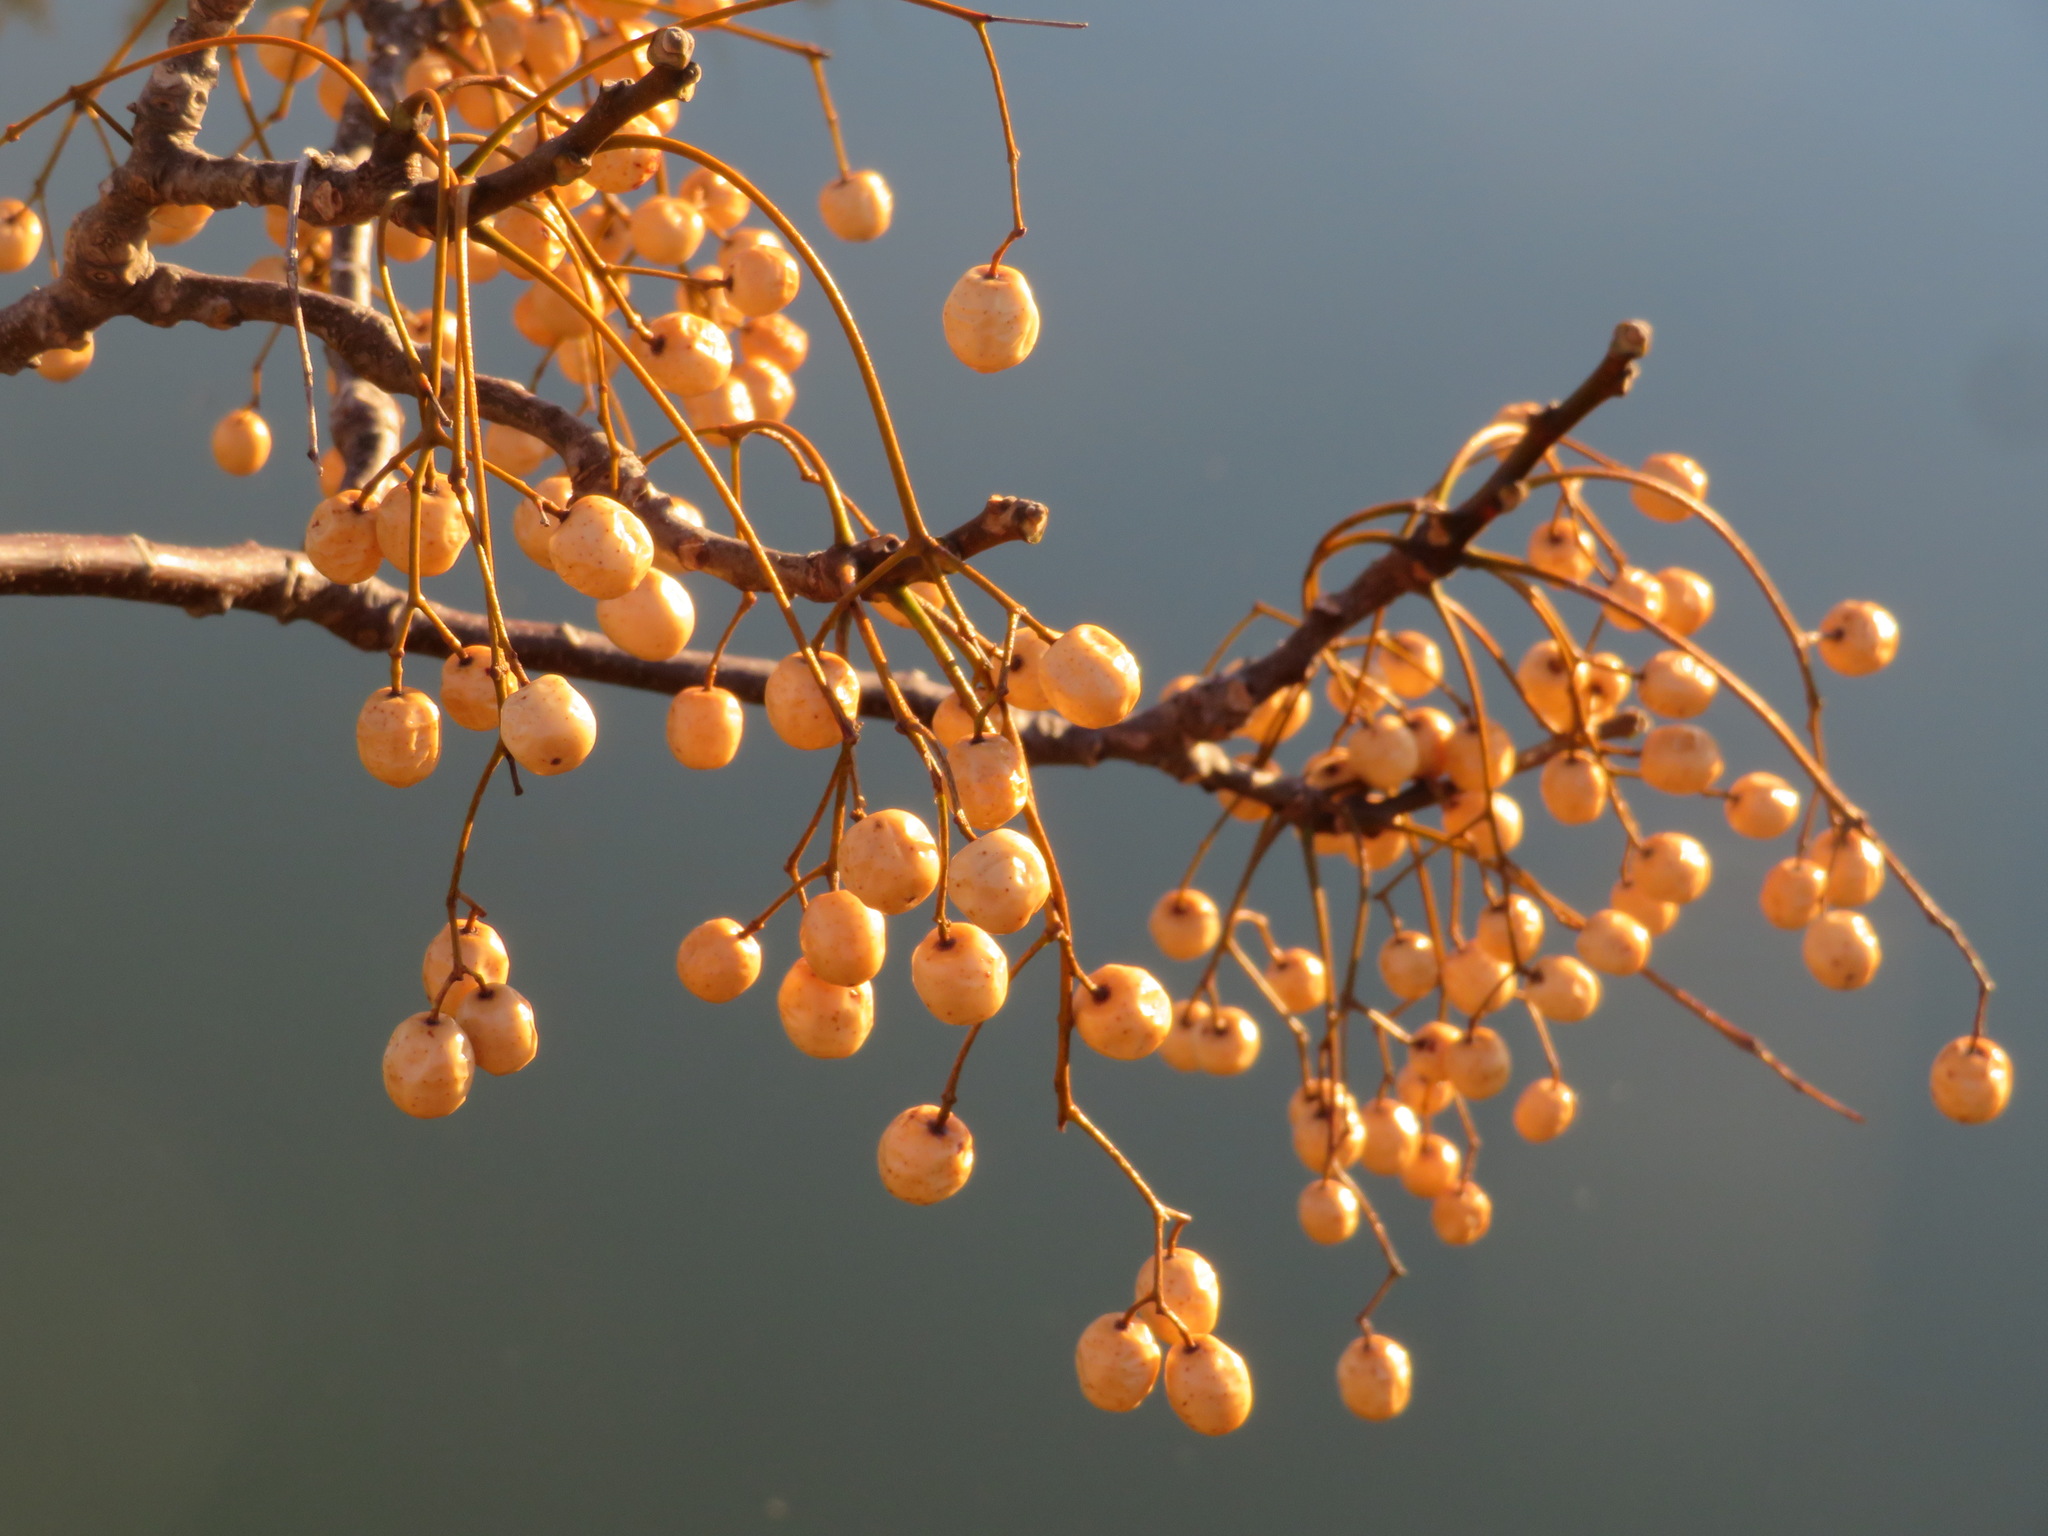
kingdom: Plantae
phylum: Tracheophyta
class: Magnoliopsida
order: Sapindales
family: Meliaceae
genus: Melia
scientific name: Melia azedarach
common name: Chinaberrytree
